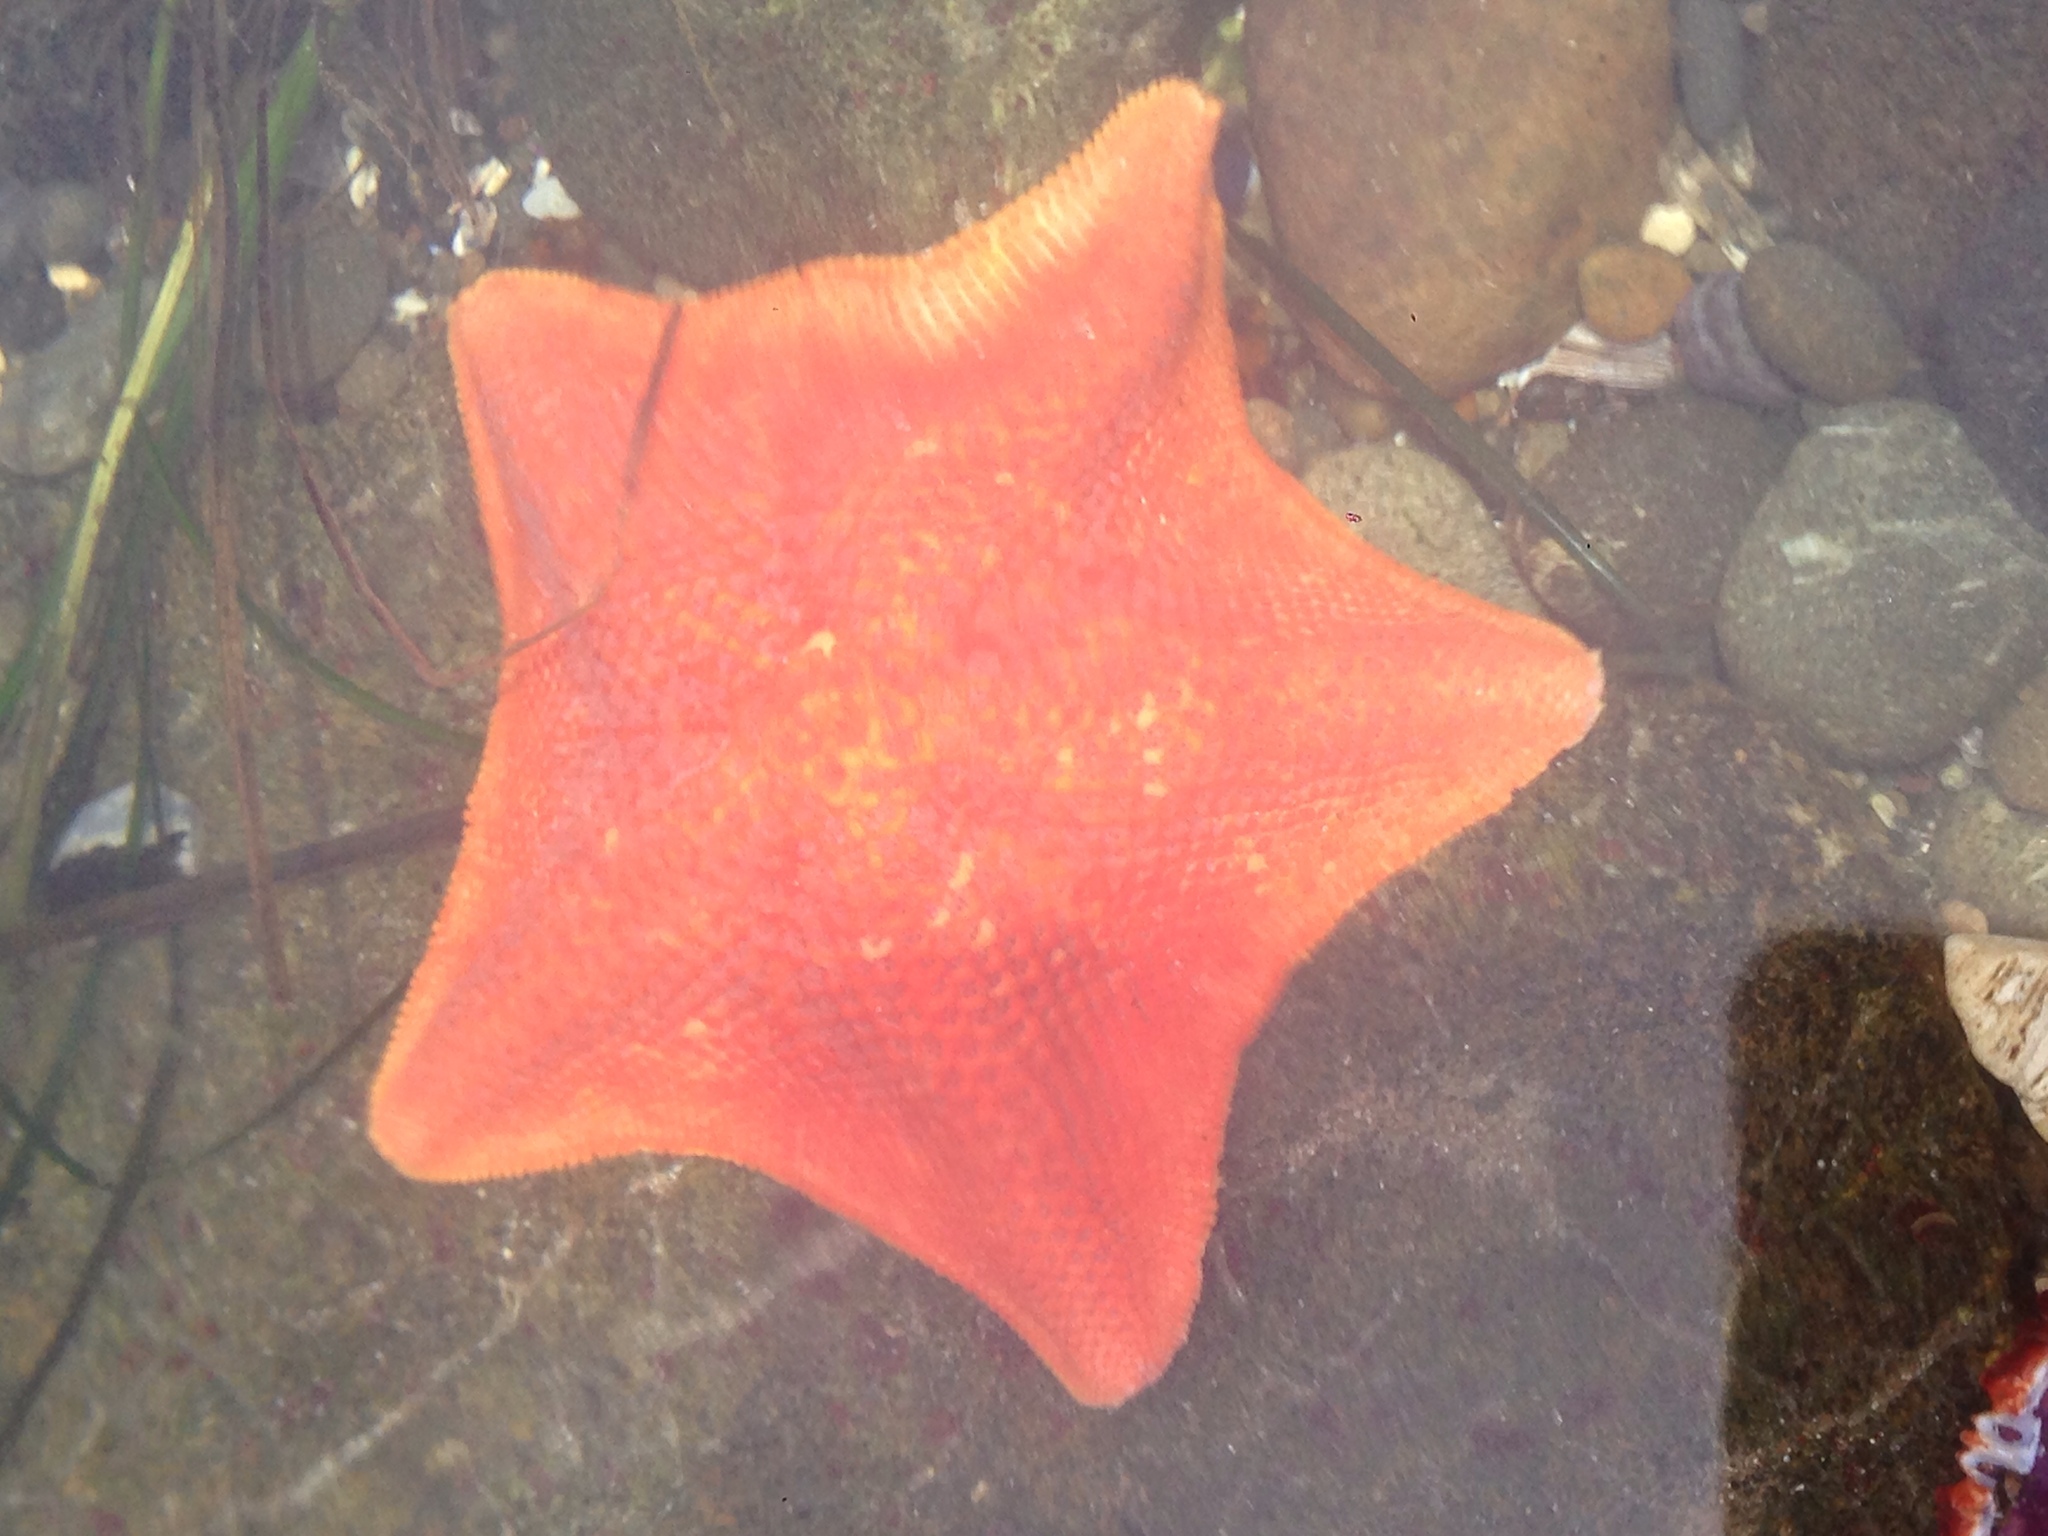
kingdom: Animalia
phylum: Echinodermata
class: Asteroidea
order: Valvatida
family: Asterinidae
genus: Patiria
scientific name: Patiria miniata
